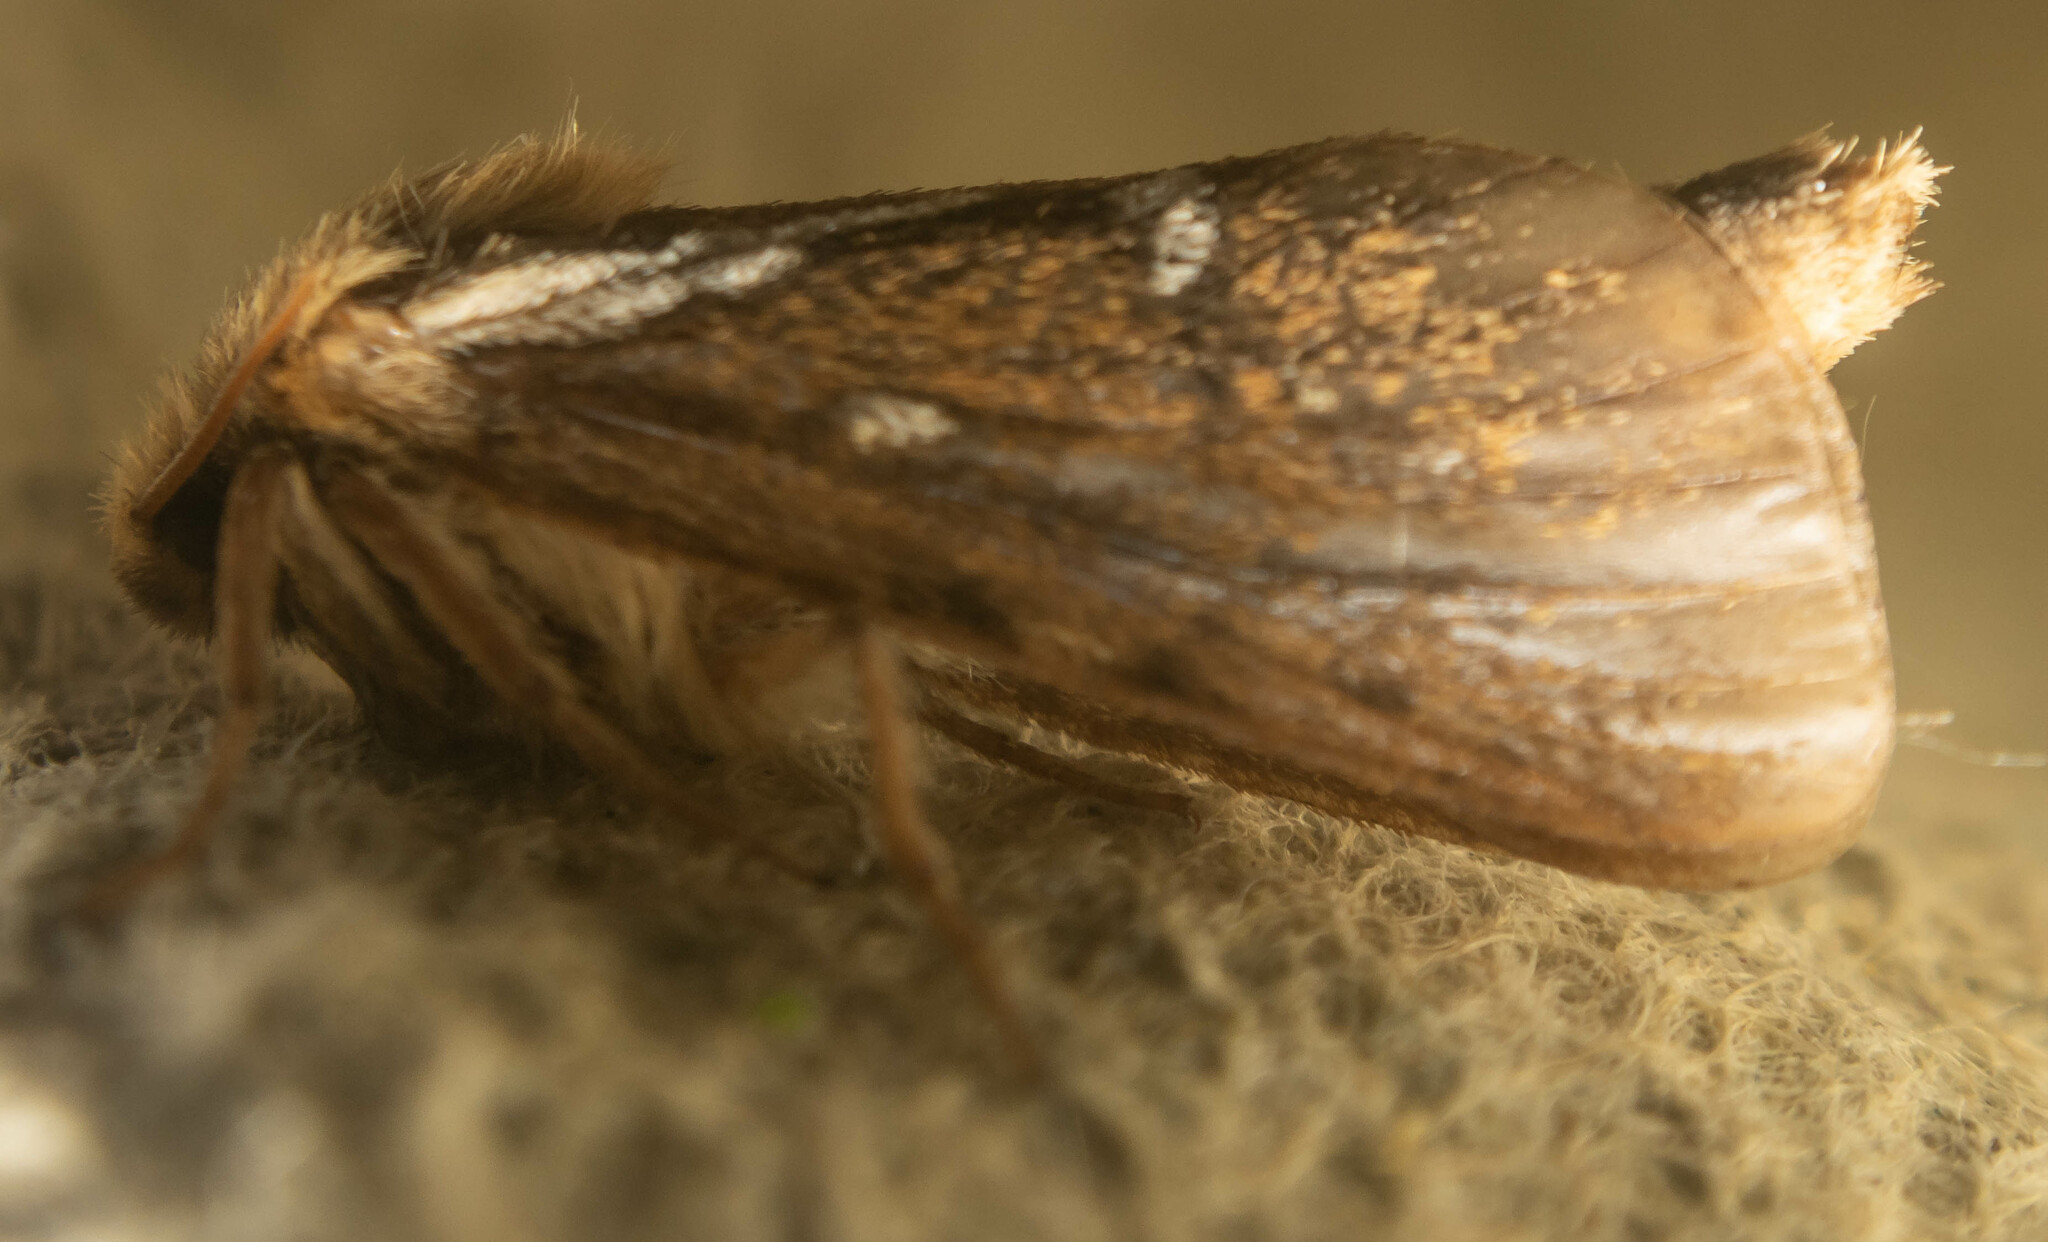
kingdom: Animalia
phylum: Arthropoda
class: Insecta
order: Lepidoptera
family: Hepialidae
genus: Korscheltellus
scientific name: Korscheltellus lupulina
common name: Common swift
